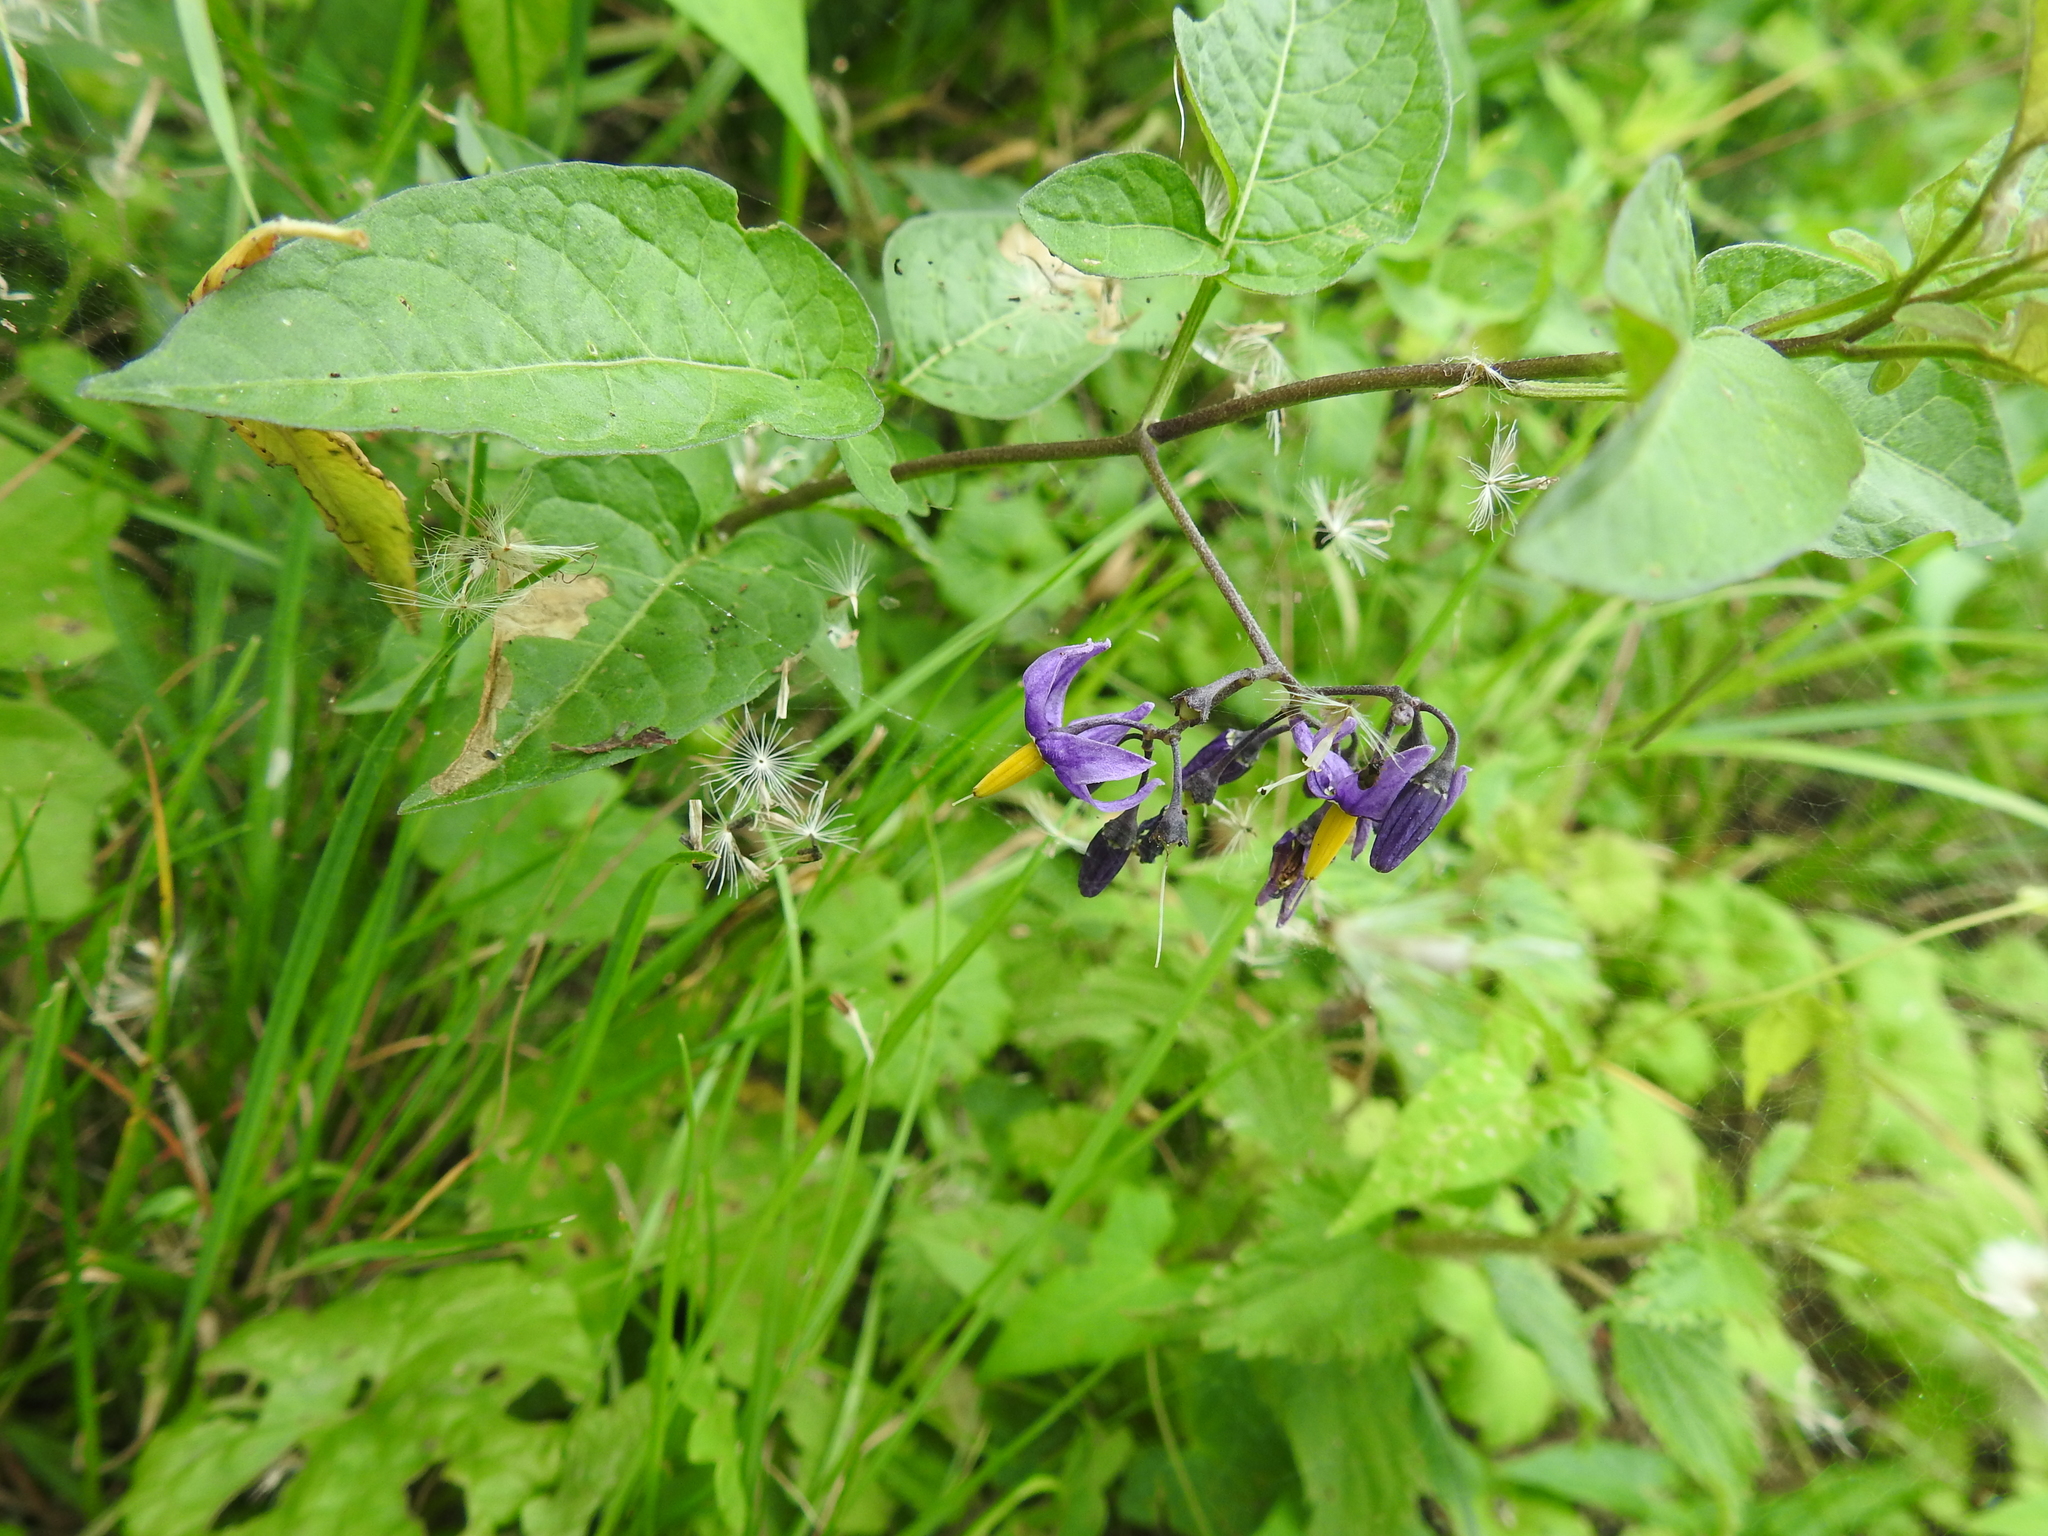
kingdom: Plantae
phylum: Tracheophyta
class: Magnoliopsida
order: Solanales
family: Solanaceae
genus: Solanum
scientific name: Solanum dulcamara
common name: Climbing nightshade
